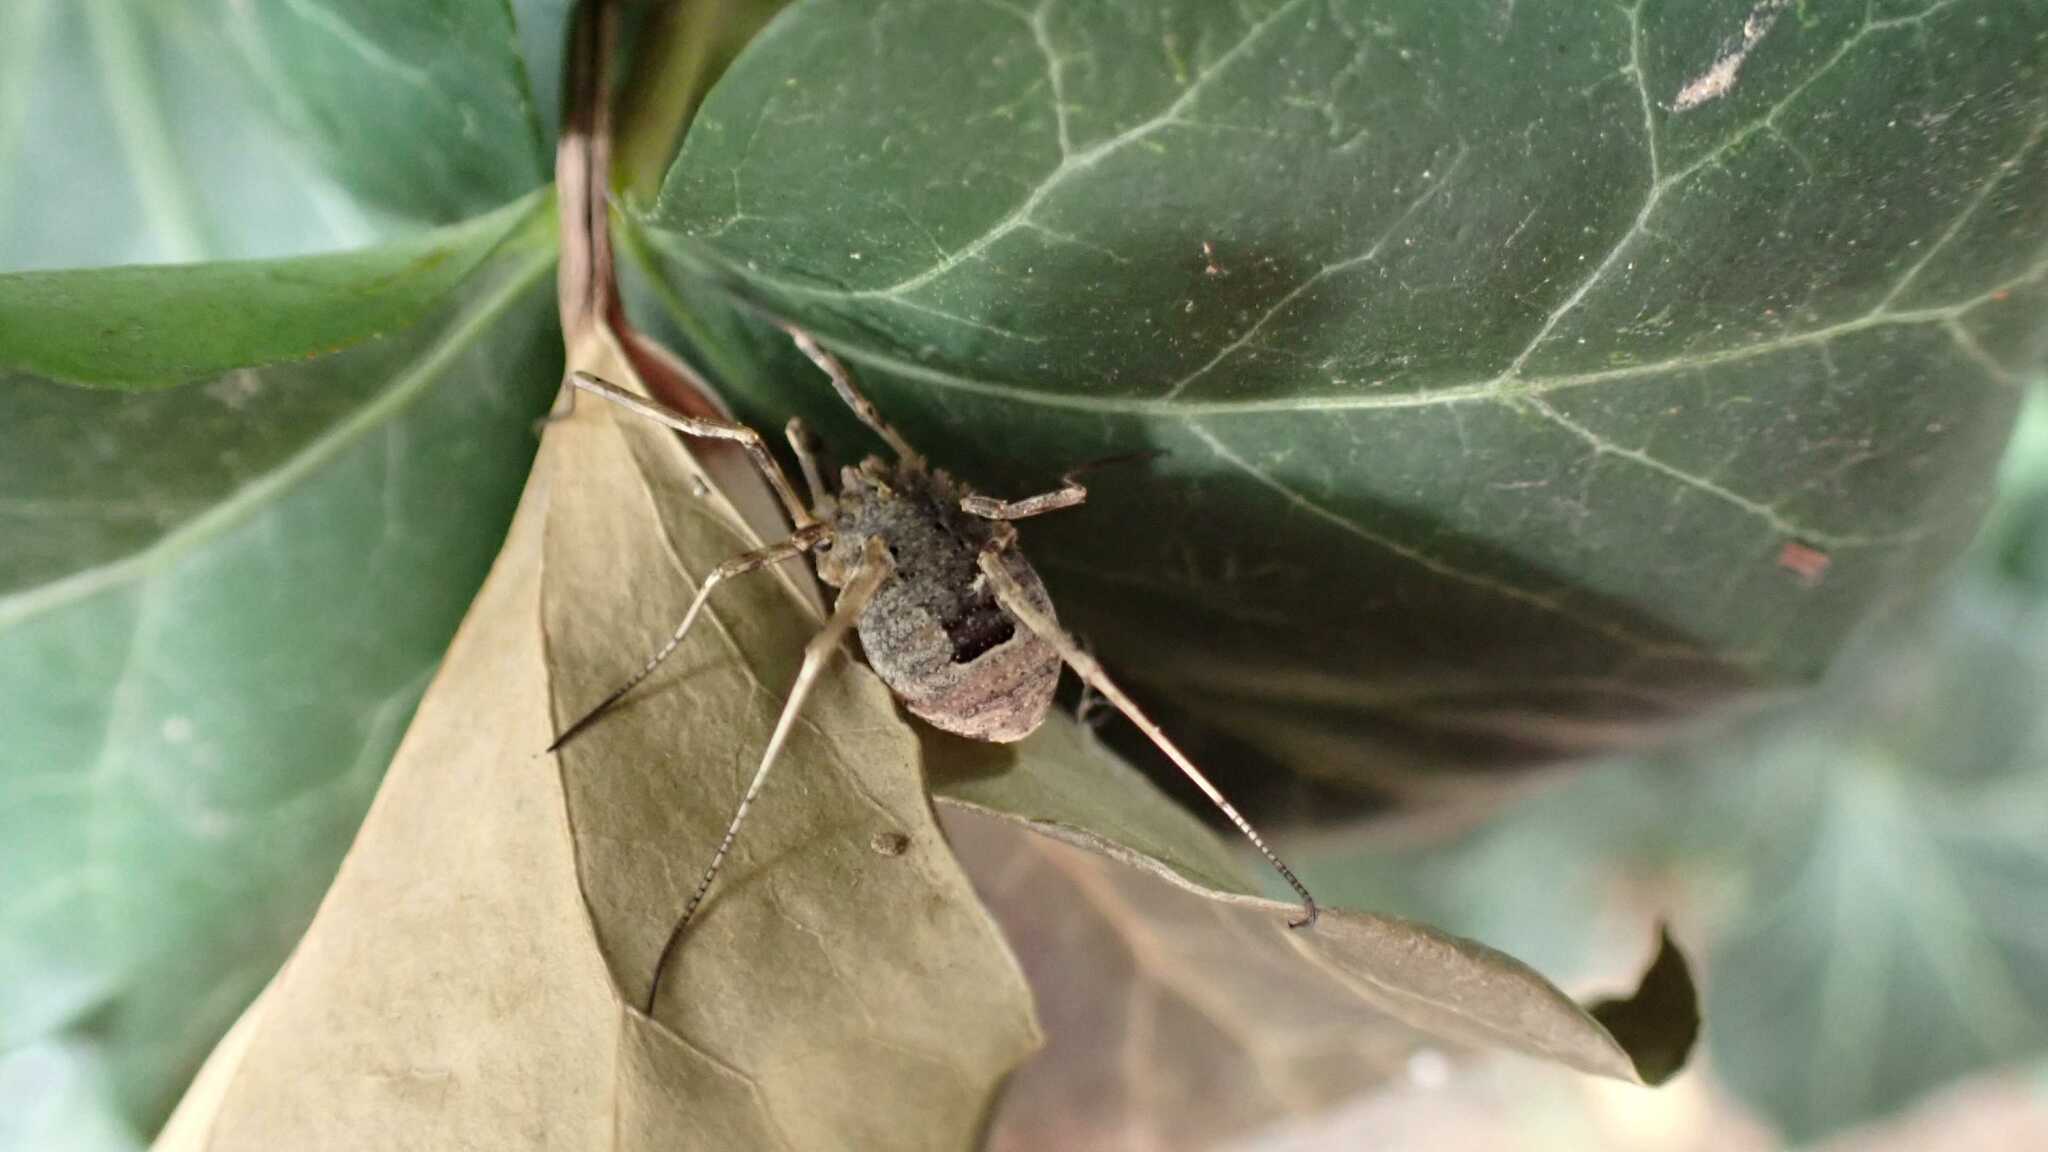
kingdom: Animalia
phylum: Arthropoda
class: Arachnida
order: Opiliones
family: Phalangiidae
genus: Odiellus
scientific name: Odiellus spinosus
